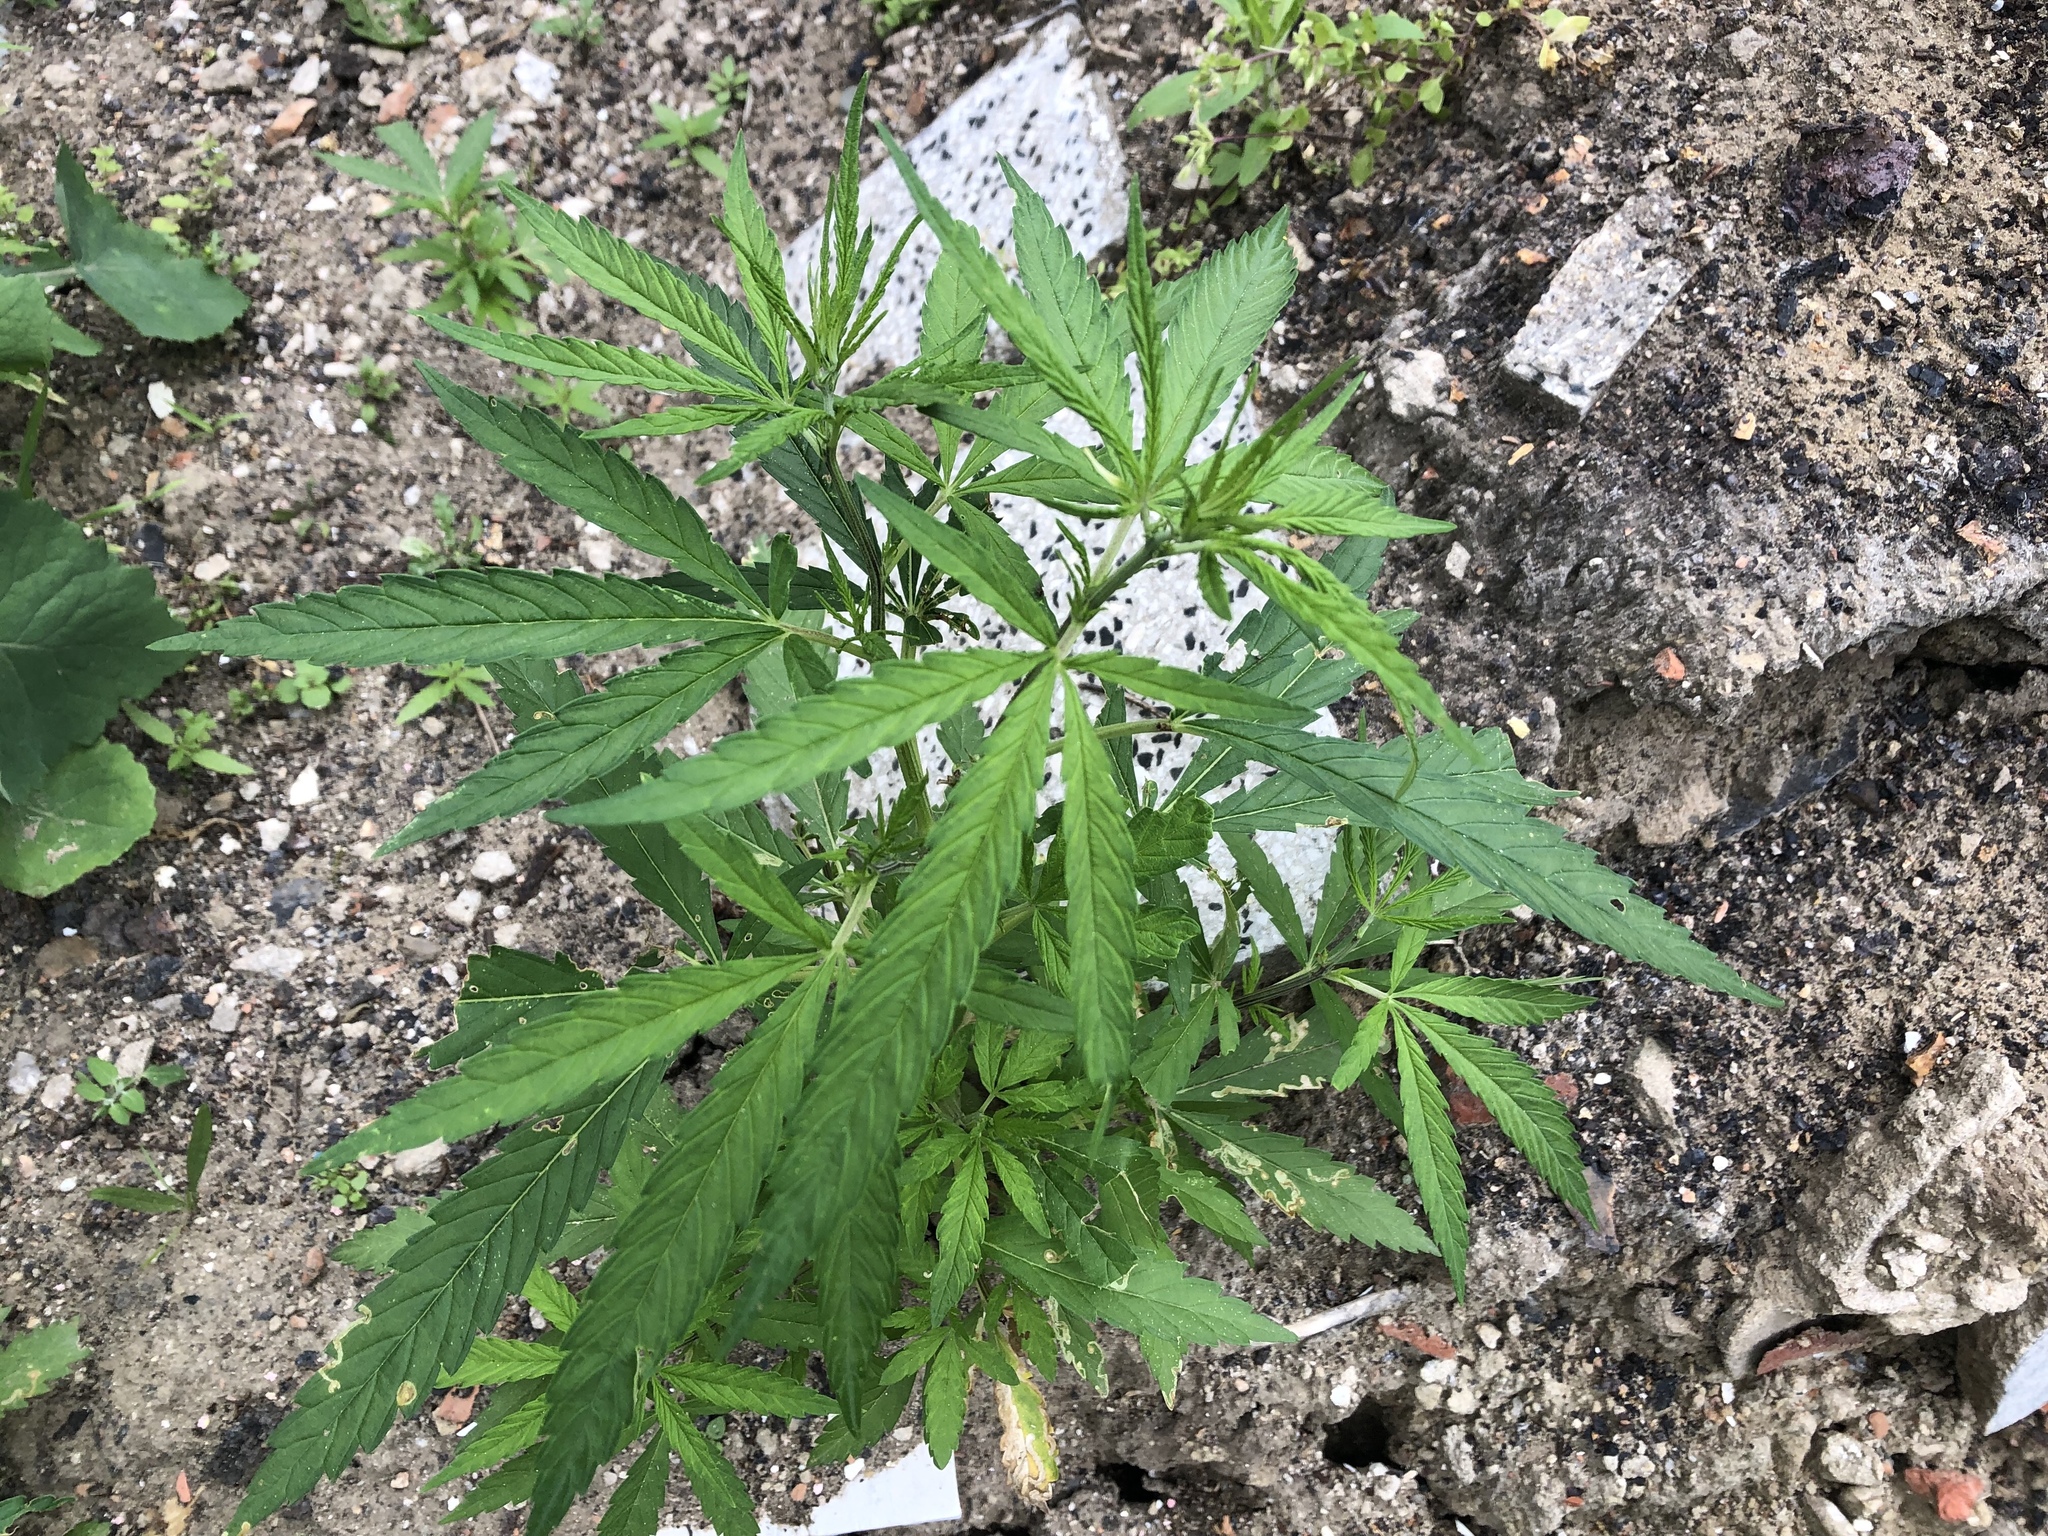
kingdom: Plantae
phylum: Tracheophyta
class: Magnoliopsida
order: Rosales
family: Cannabaceae
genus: Cannabis
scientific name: Cannabis sativa
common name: Hemp
